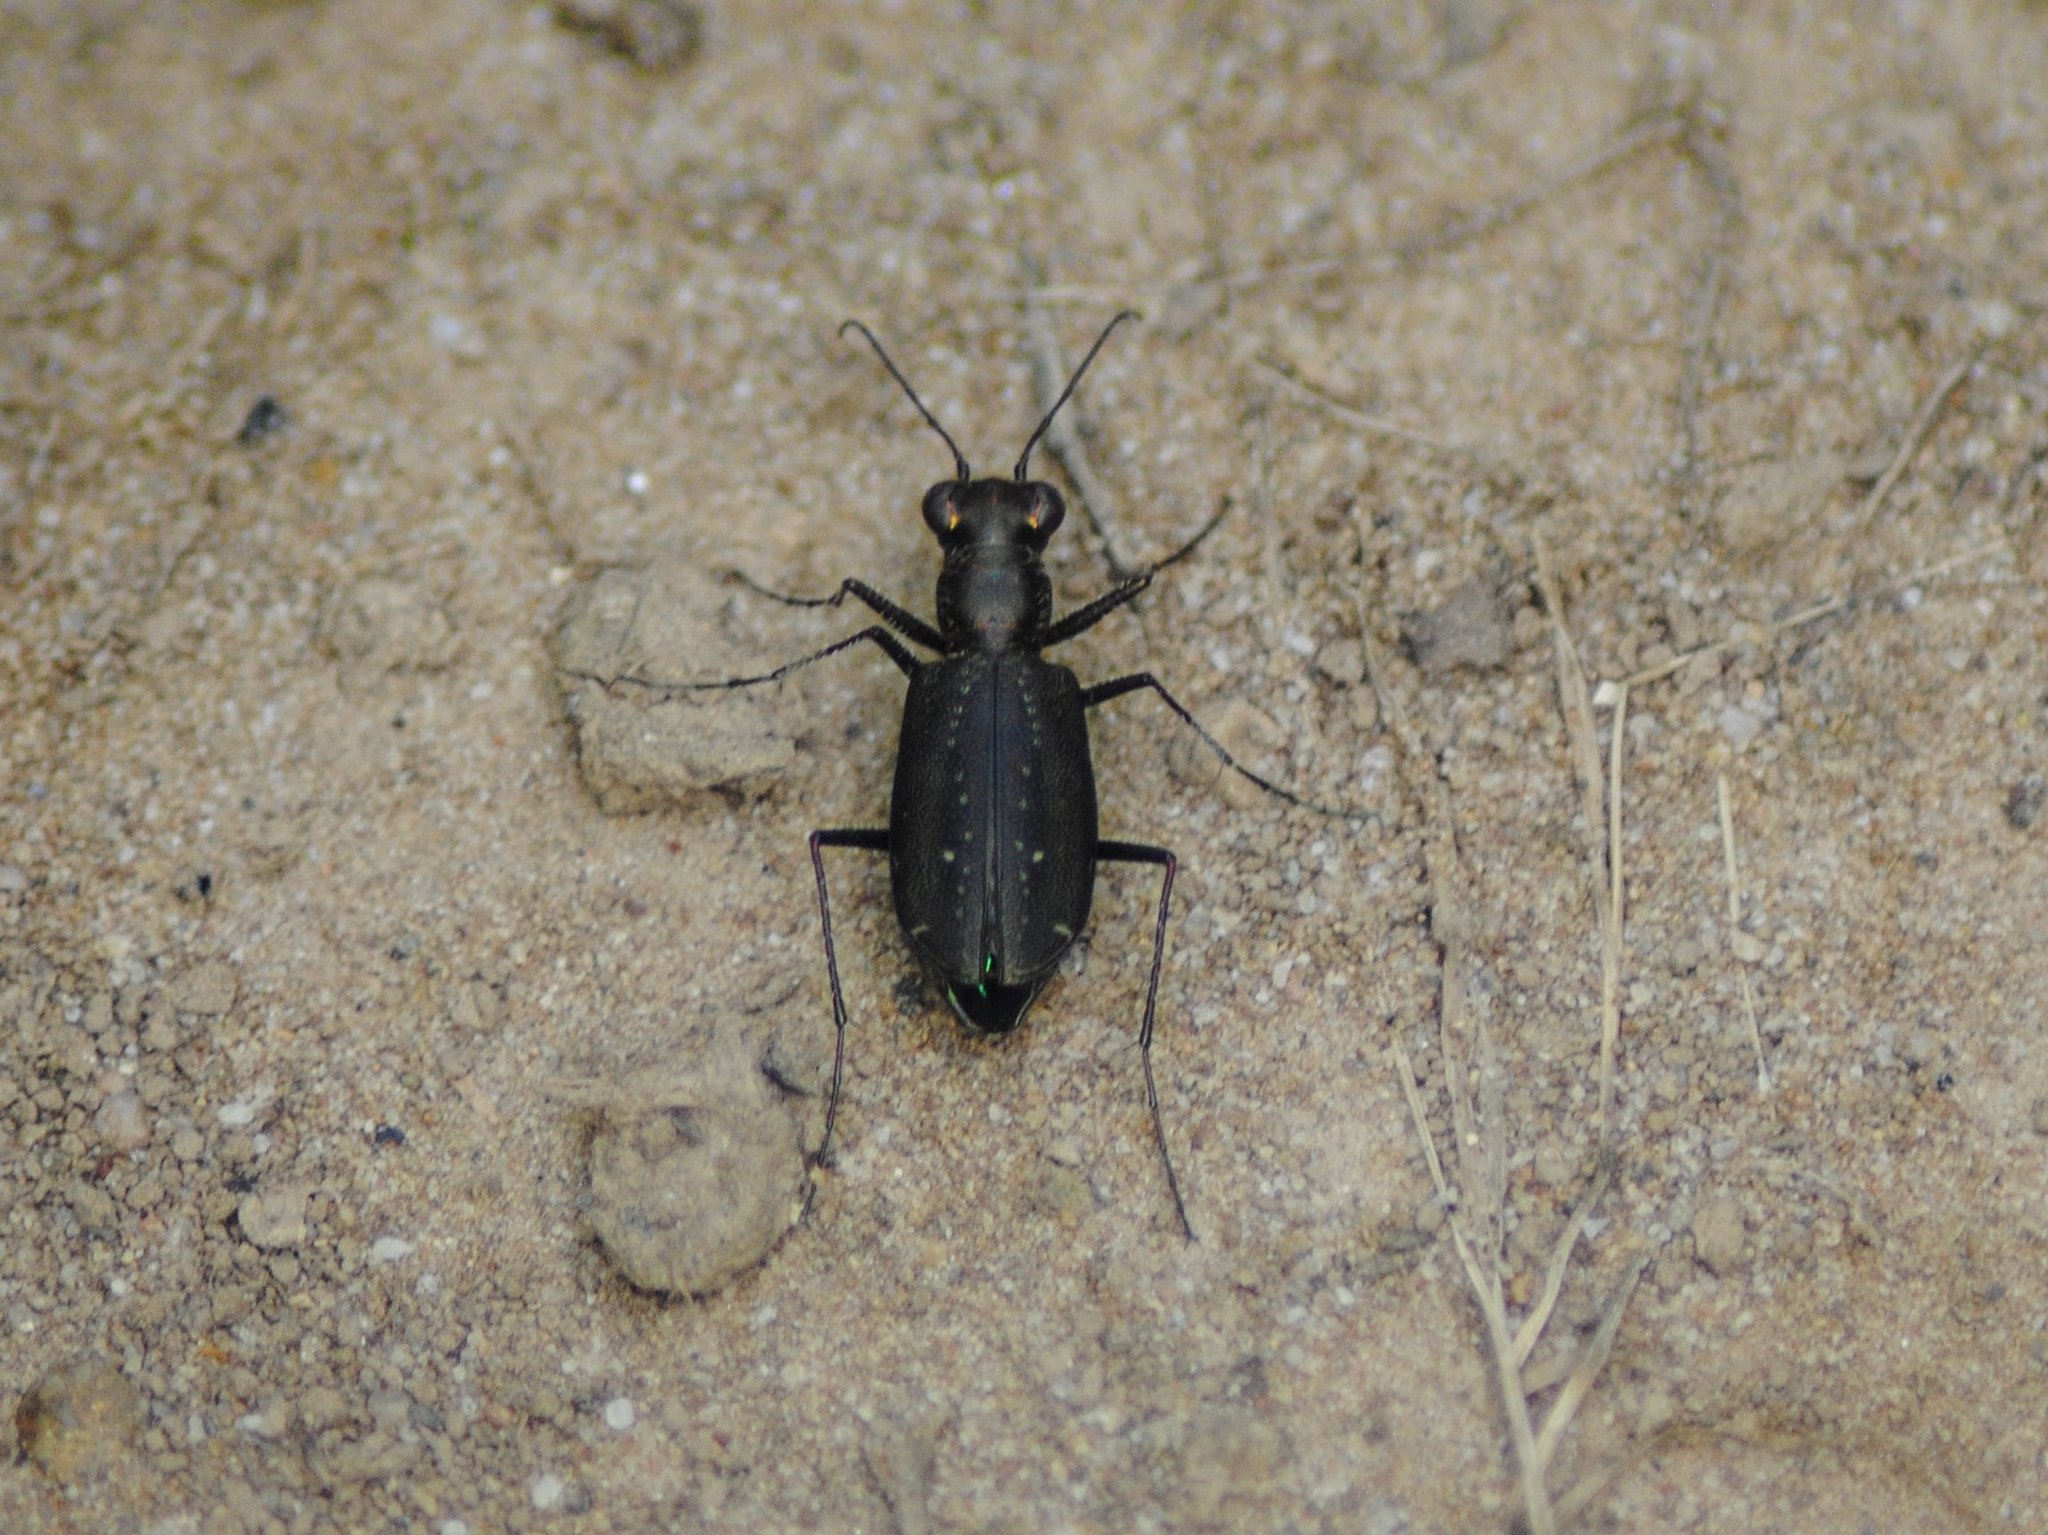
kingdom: Animalia
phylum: Arthropoda
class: Insecta
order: Coleoptera
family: Carabidae
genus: Cicindela
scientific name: Cicindela punctulata
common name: Punctured tiger beetle
